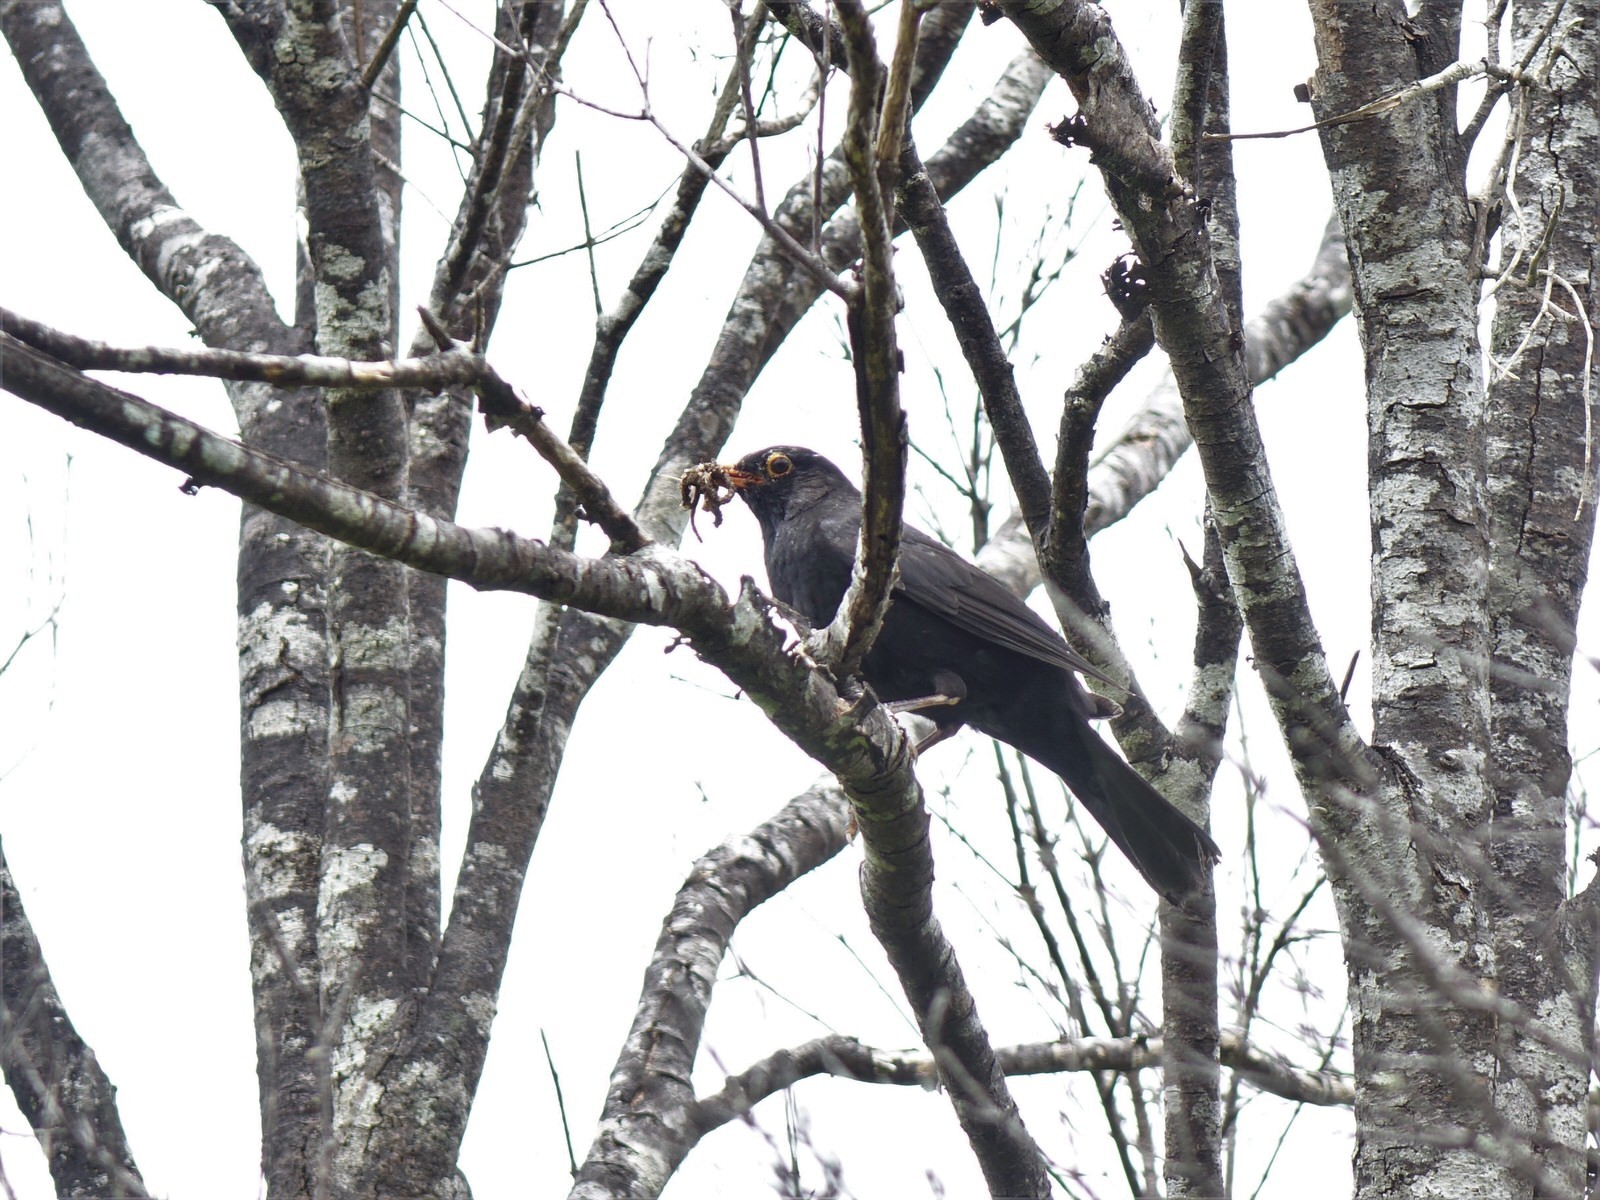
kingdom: Animalia
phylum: Chordata
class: Aves
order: Passeriformes
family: Turdidae
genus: Turdus
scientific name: Turdus merula
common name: Common blackbird
